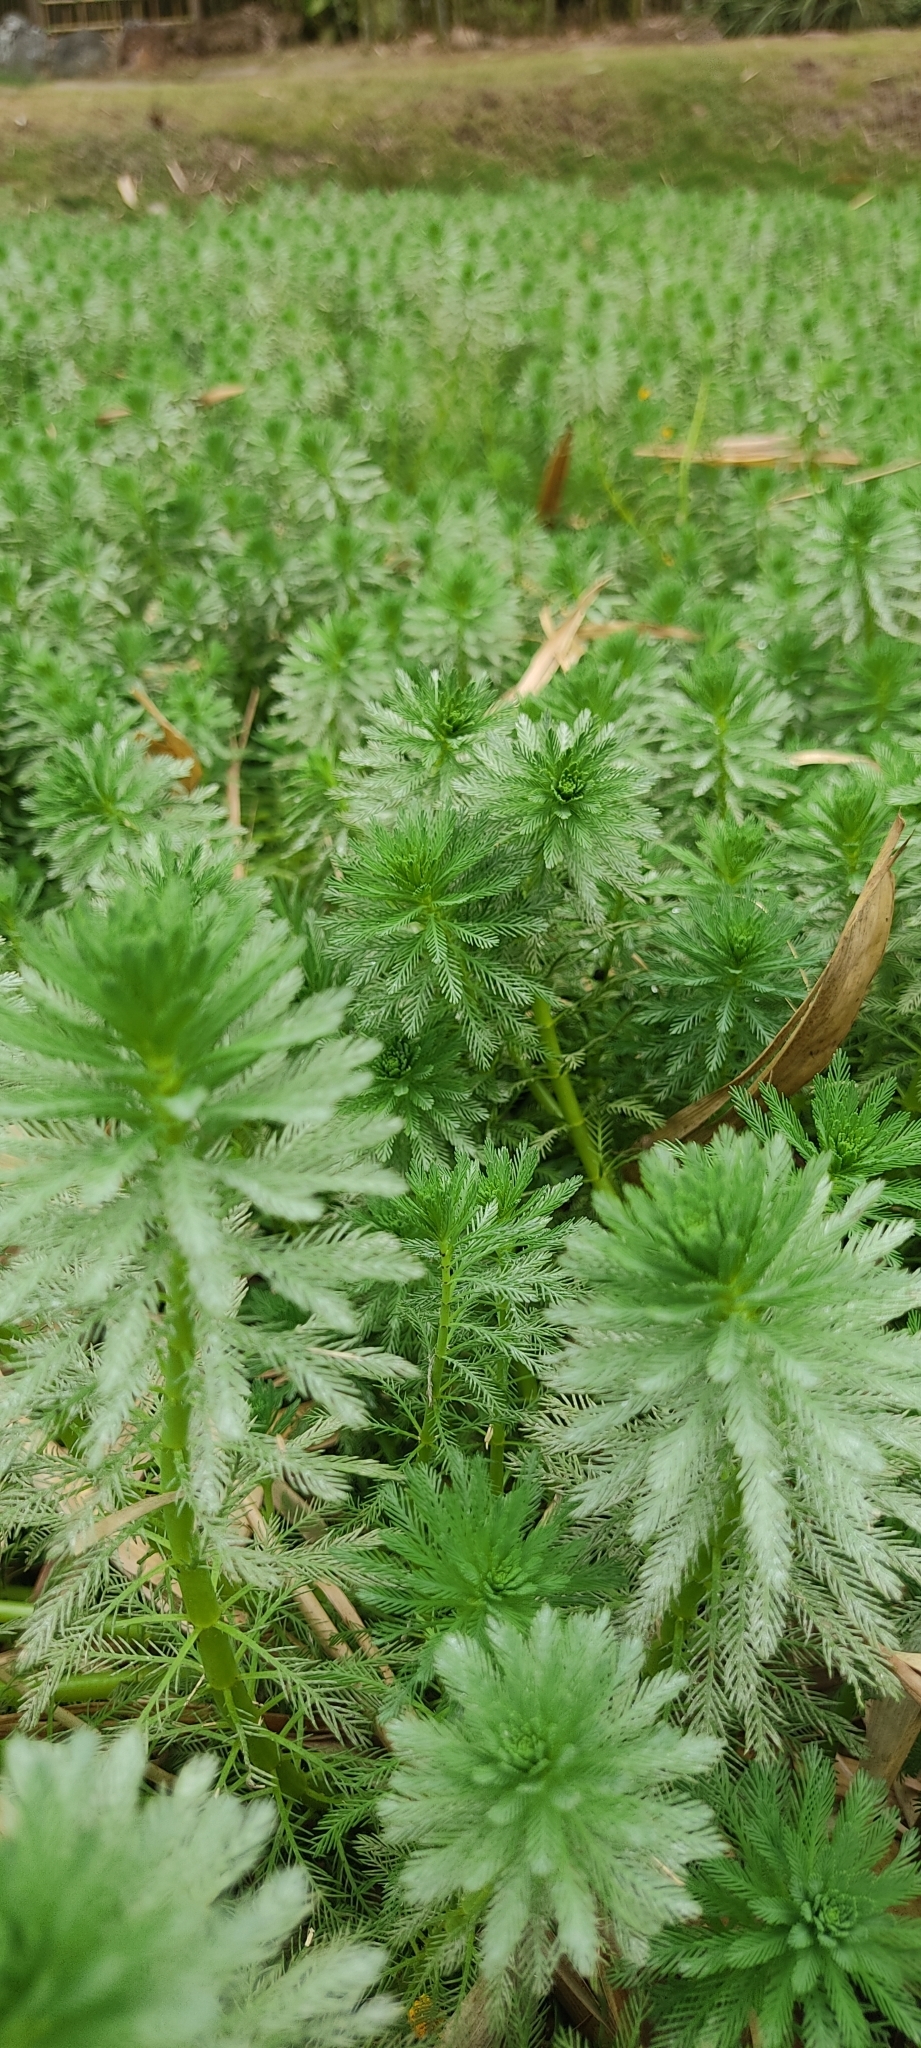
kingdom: Plantae
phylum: Tracheophyta
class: Magnoliopsida
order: Saxifragales
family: Haloragaceae
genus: Myriophyllum
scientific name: Myriophyllum aquaticum
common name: Parrot's feather
